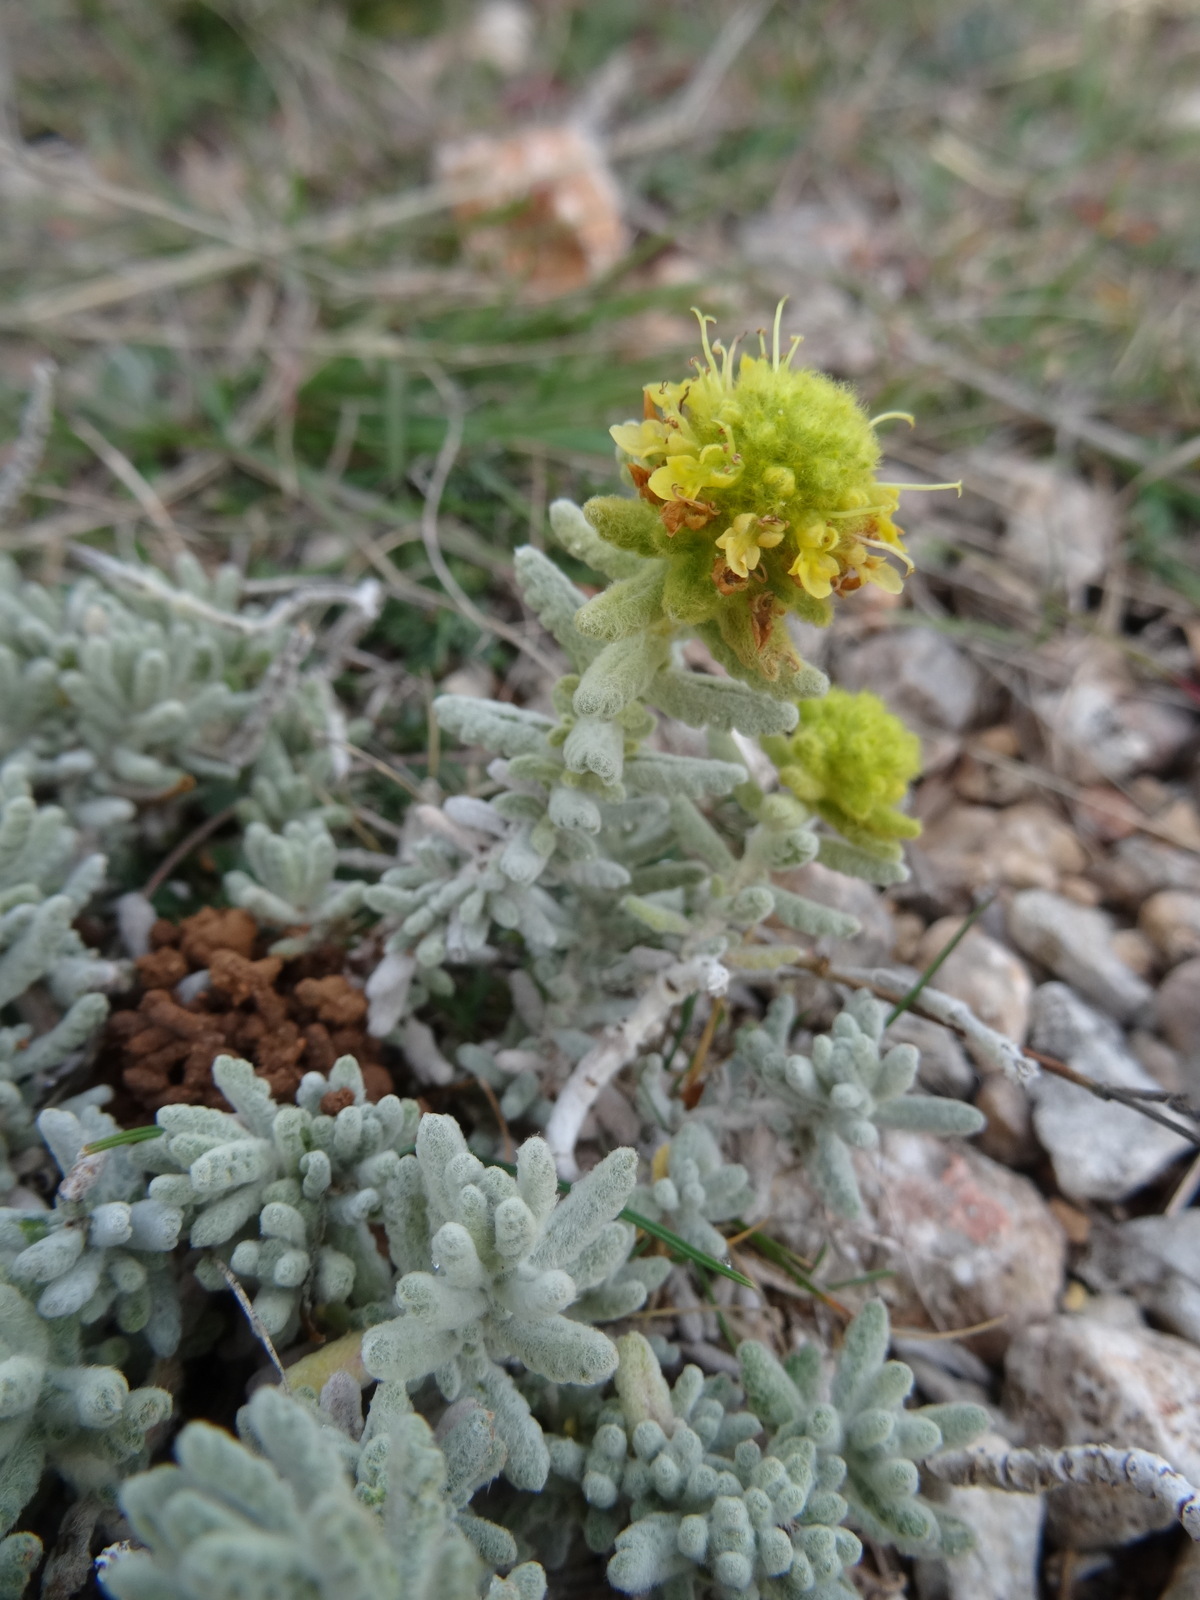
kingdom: Plantae
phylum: Tracheophyta
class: Magnoliopsida
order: Lamiales
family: Lamiaceae
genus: Teucrium
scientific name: Teucrium aureum
